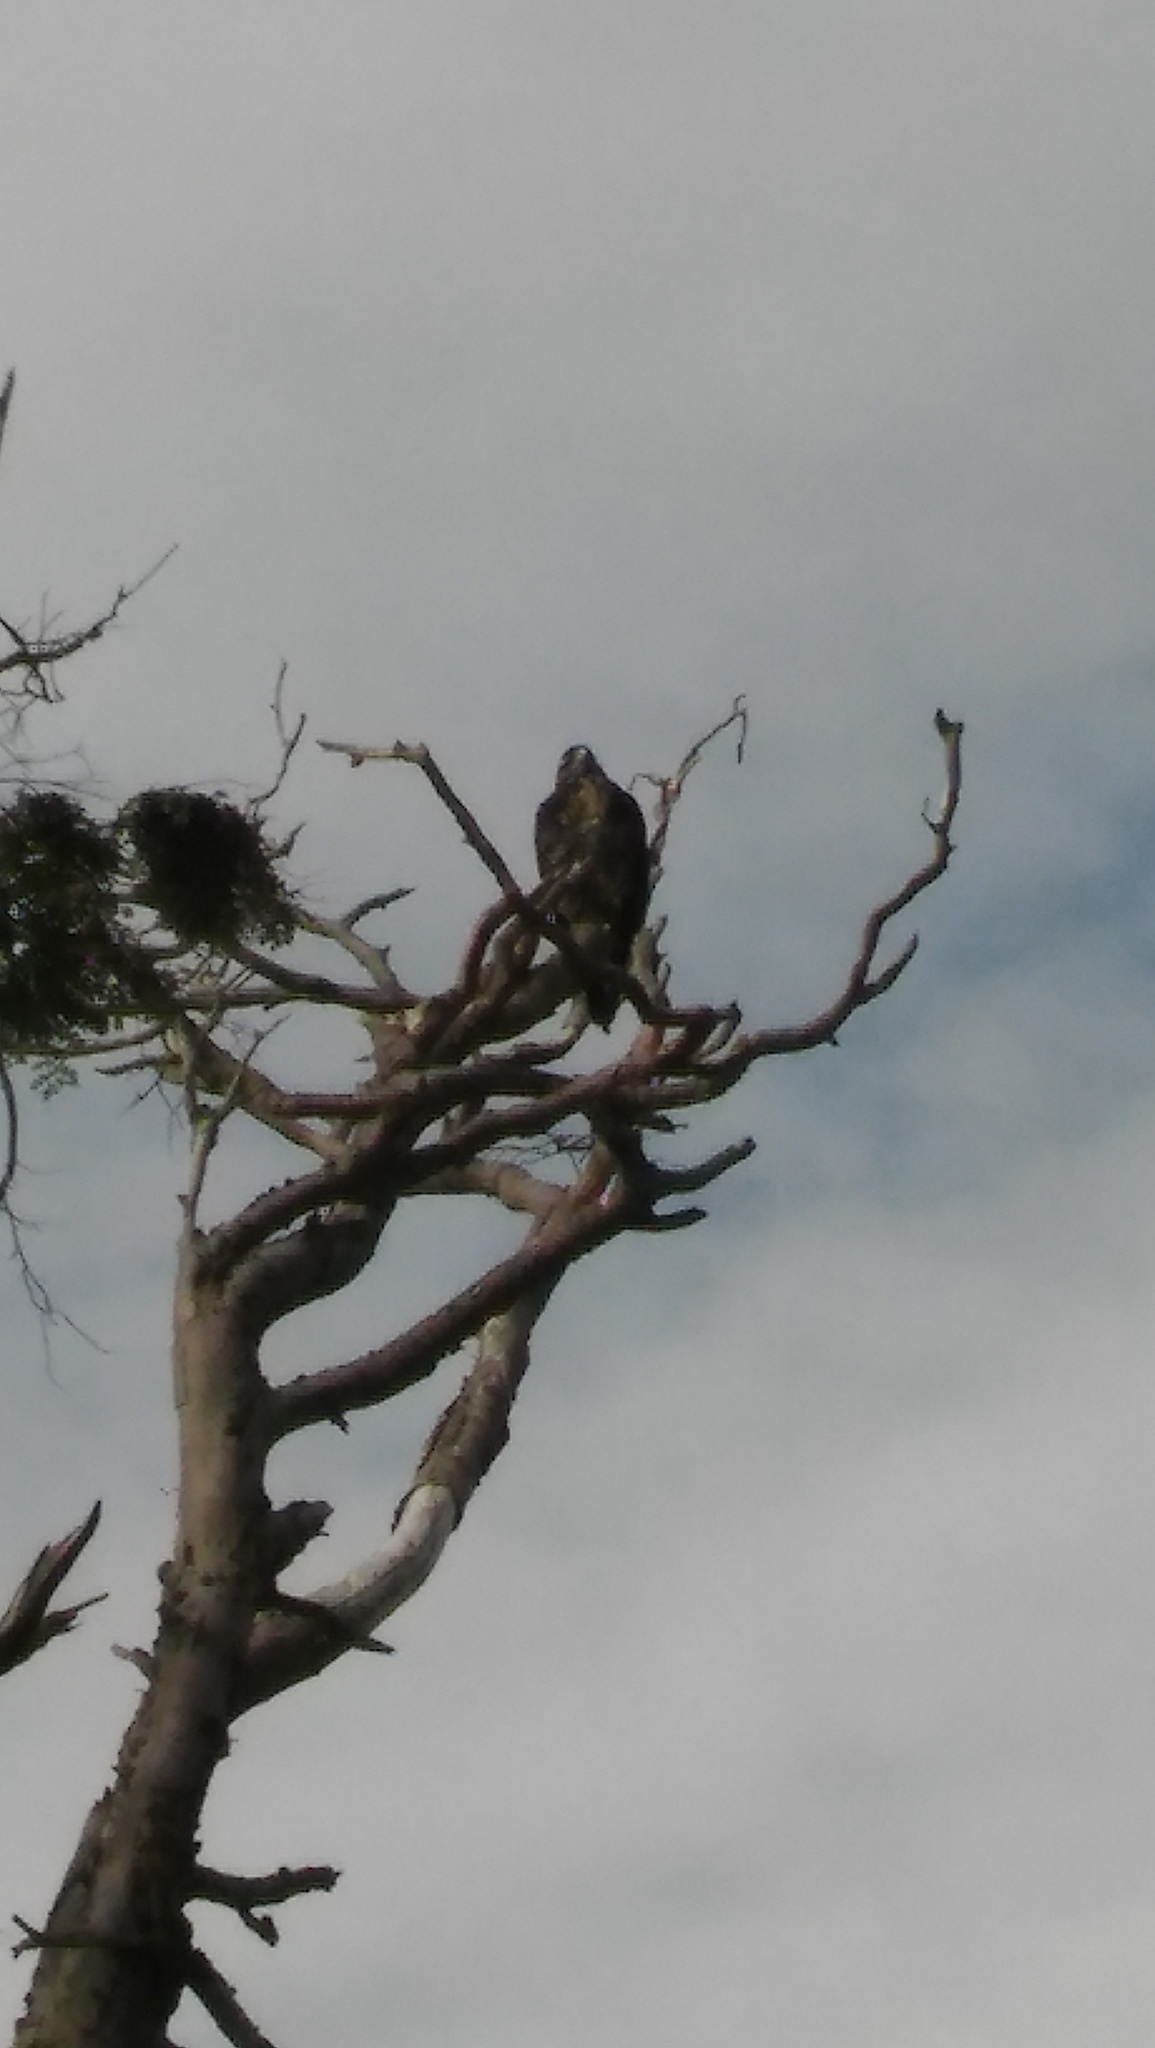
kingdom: Animalia
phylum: Chordata
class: Aves
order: Accipitriformes
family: Accipitridae
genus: Geranoaetus
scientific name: Geranoaetus melanoleucus
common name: Black-chested buzzard-eagle
